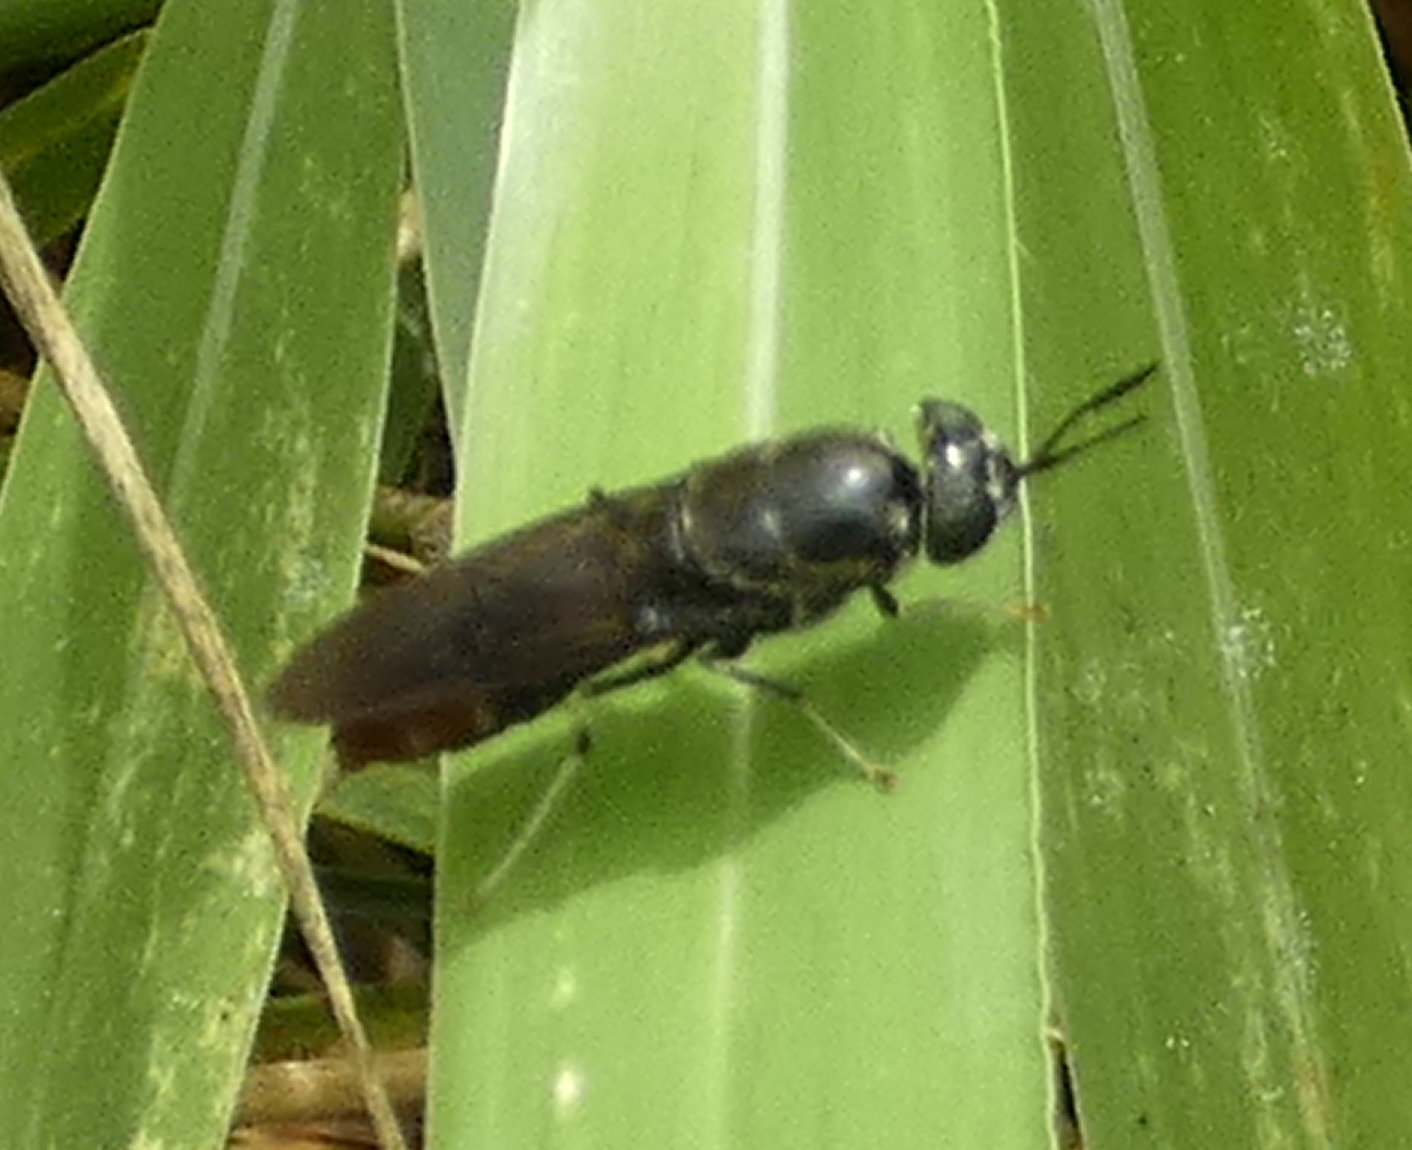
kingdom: Animalia
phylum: Arthropoda
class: Insecta
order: Diptera
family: Stratiomyidae
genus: Hermetia
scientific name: Hermetia illucens
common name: Black soldier fly
